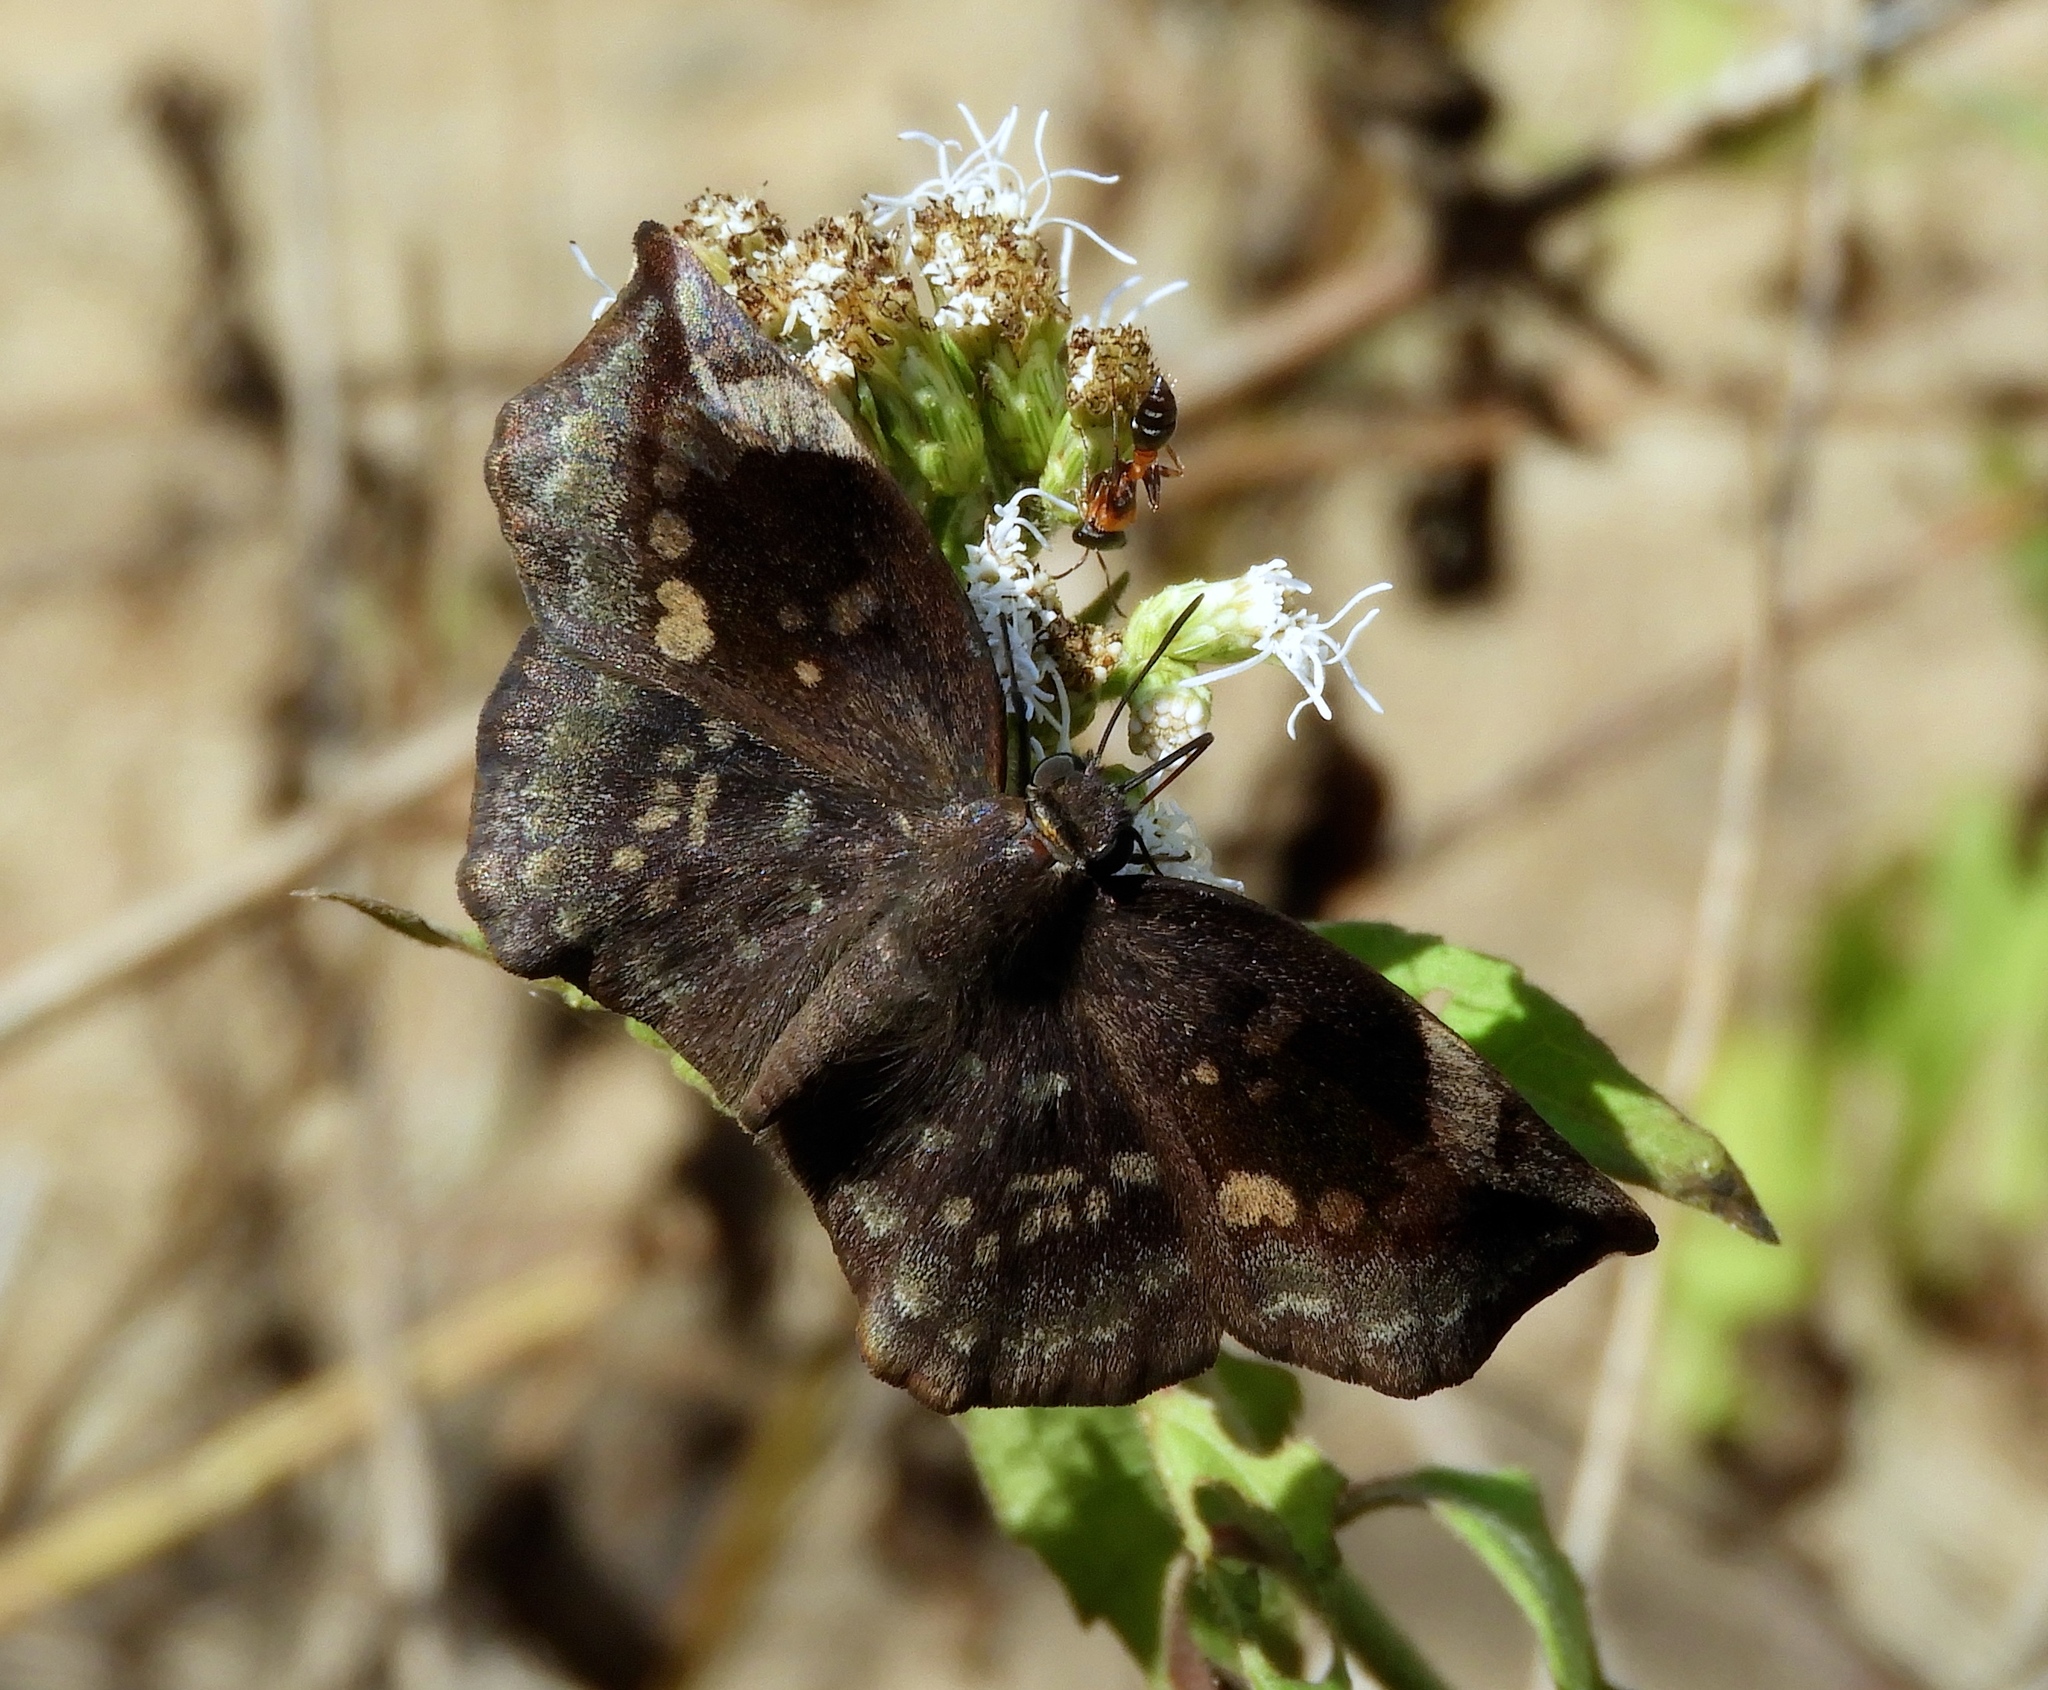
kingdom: Animalia
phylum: Arthropoda
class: Insecta
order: Lepidoptera
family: Hesperiidae
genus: Achlyodes
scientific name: Achlyodes thraso
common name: Sickle-winged skipper
